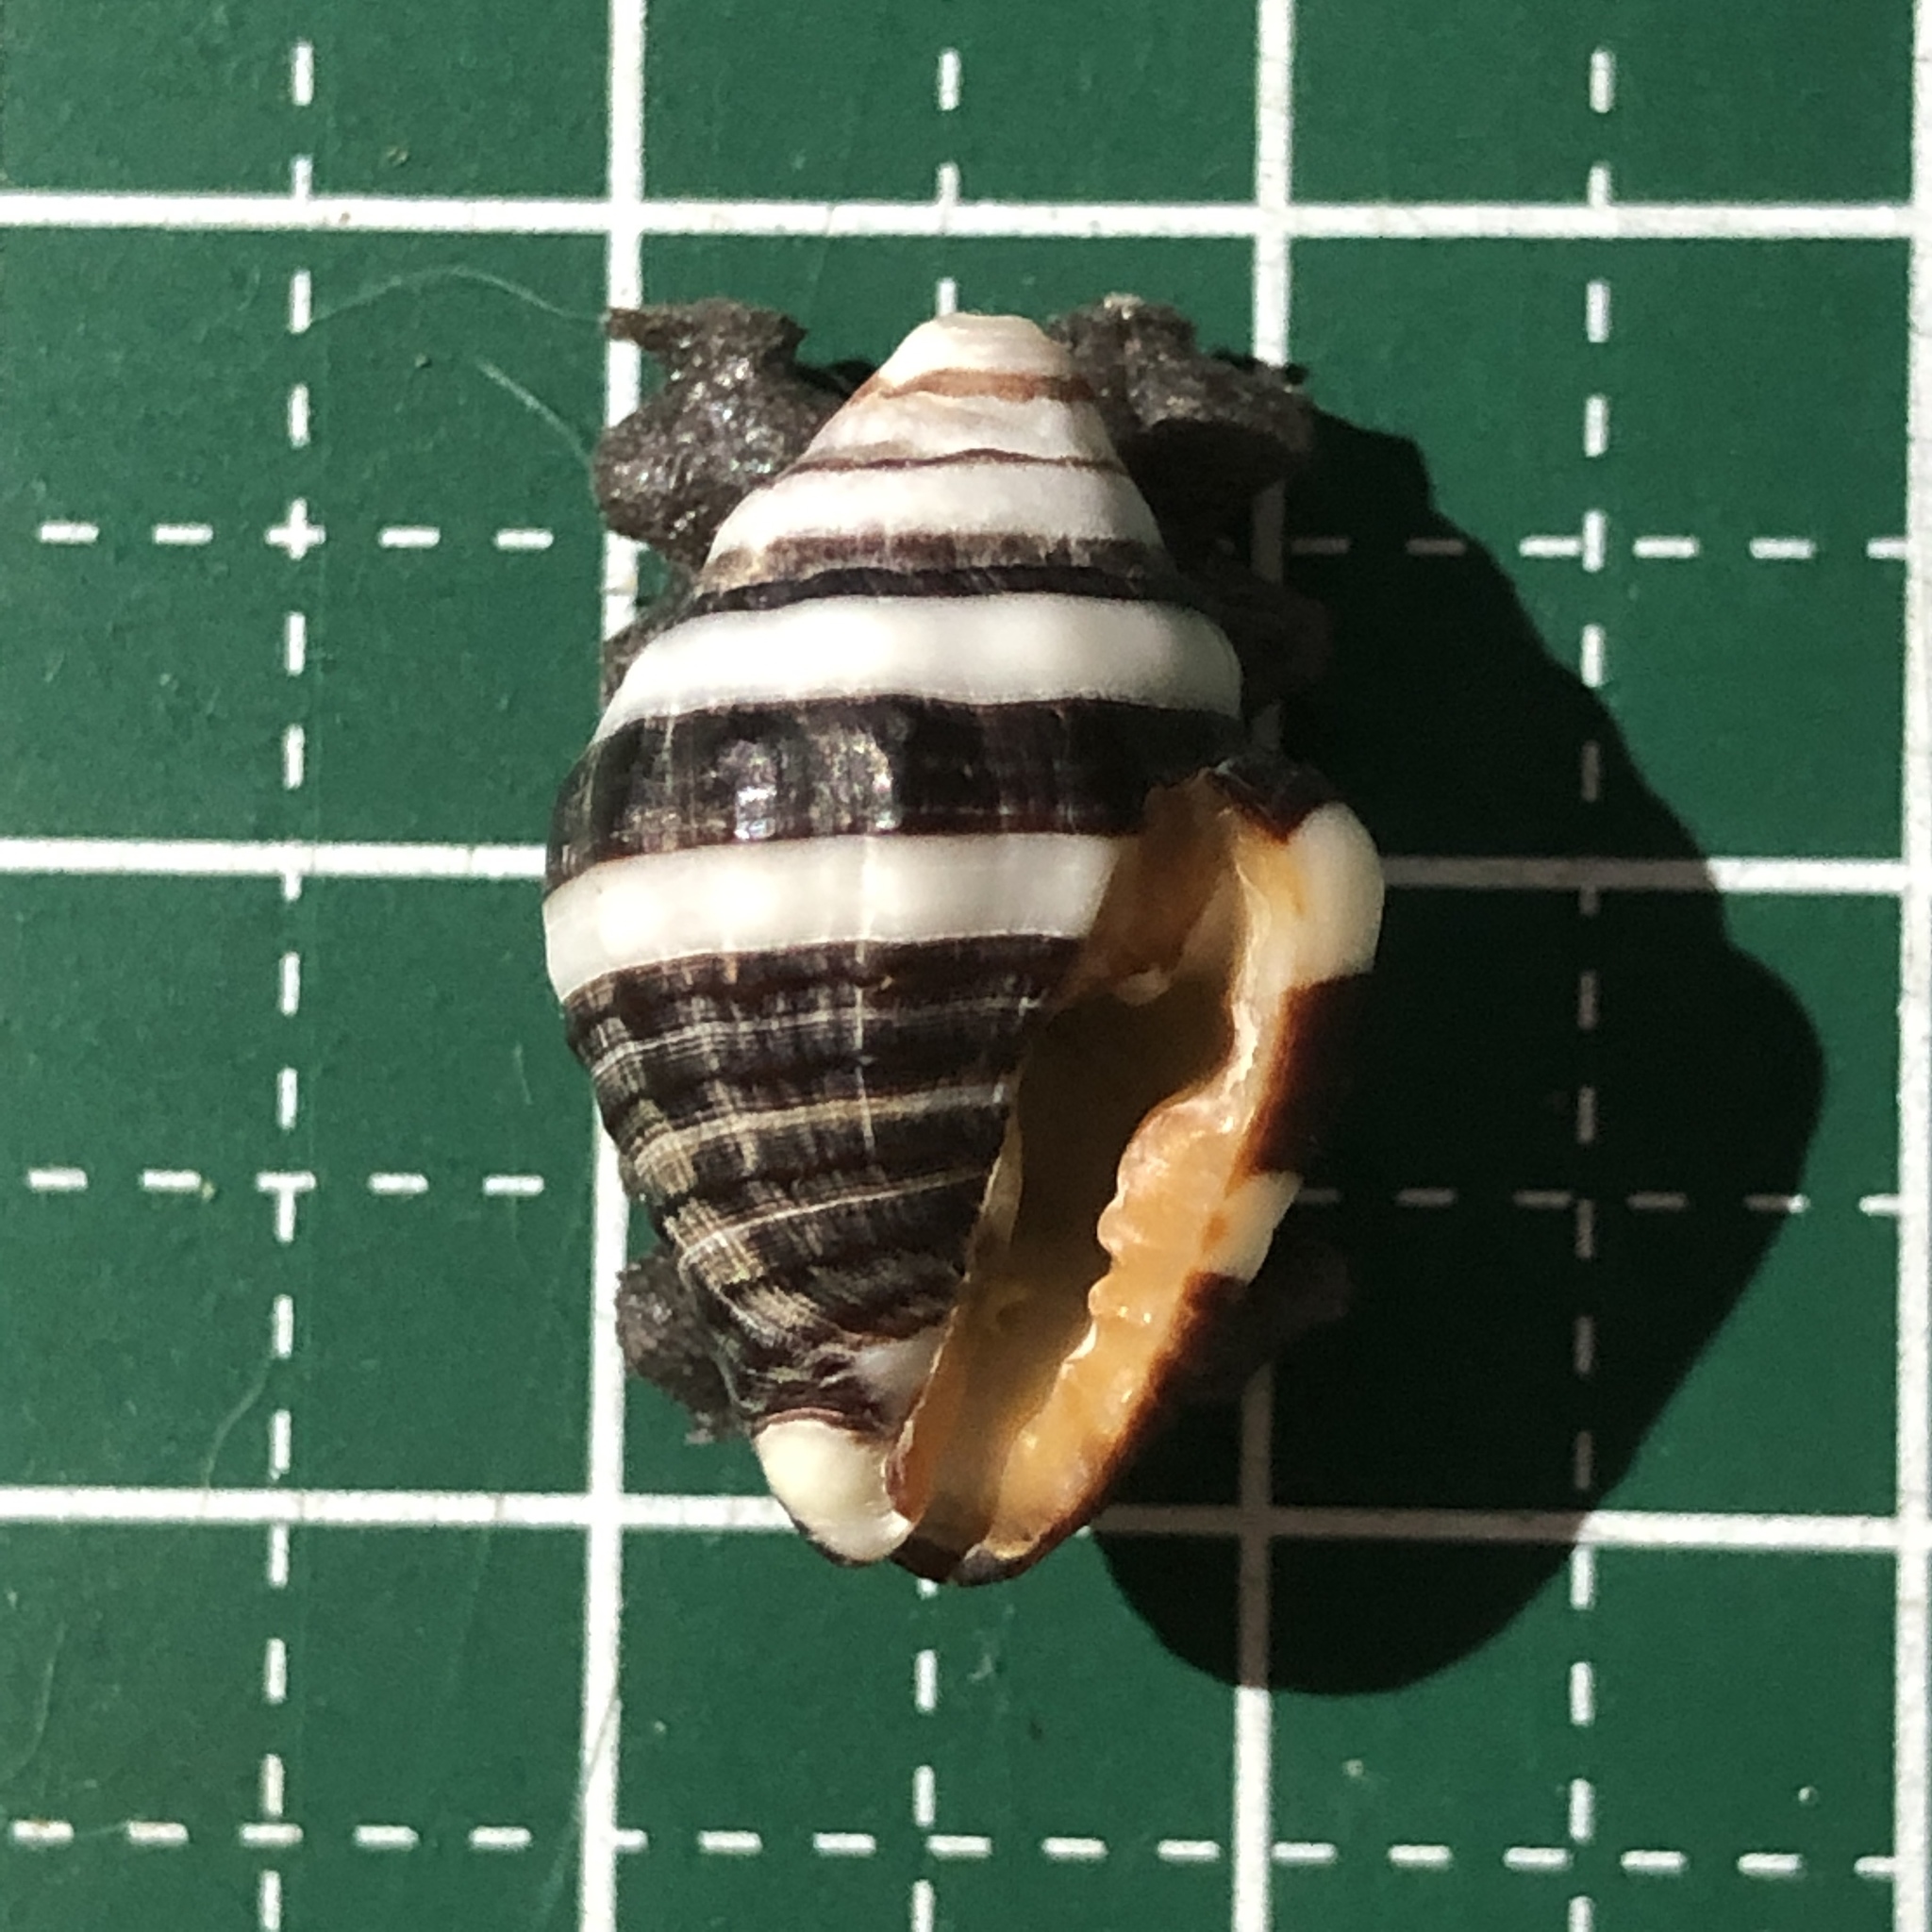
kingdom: Animalia
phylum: Mollusca
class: Gastropoda
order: Neogastropoda
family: Pisaniidae
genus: Engina
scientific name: Engina mendicaria
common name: Bumble bee snail
